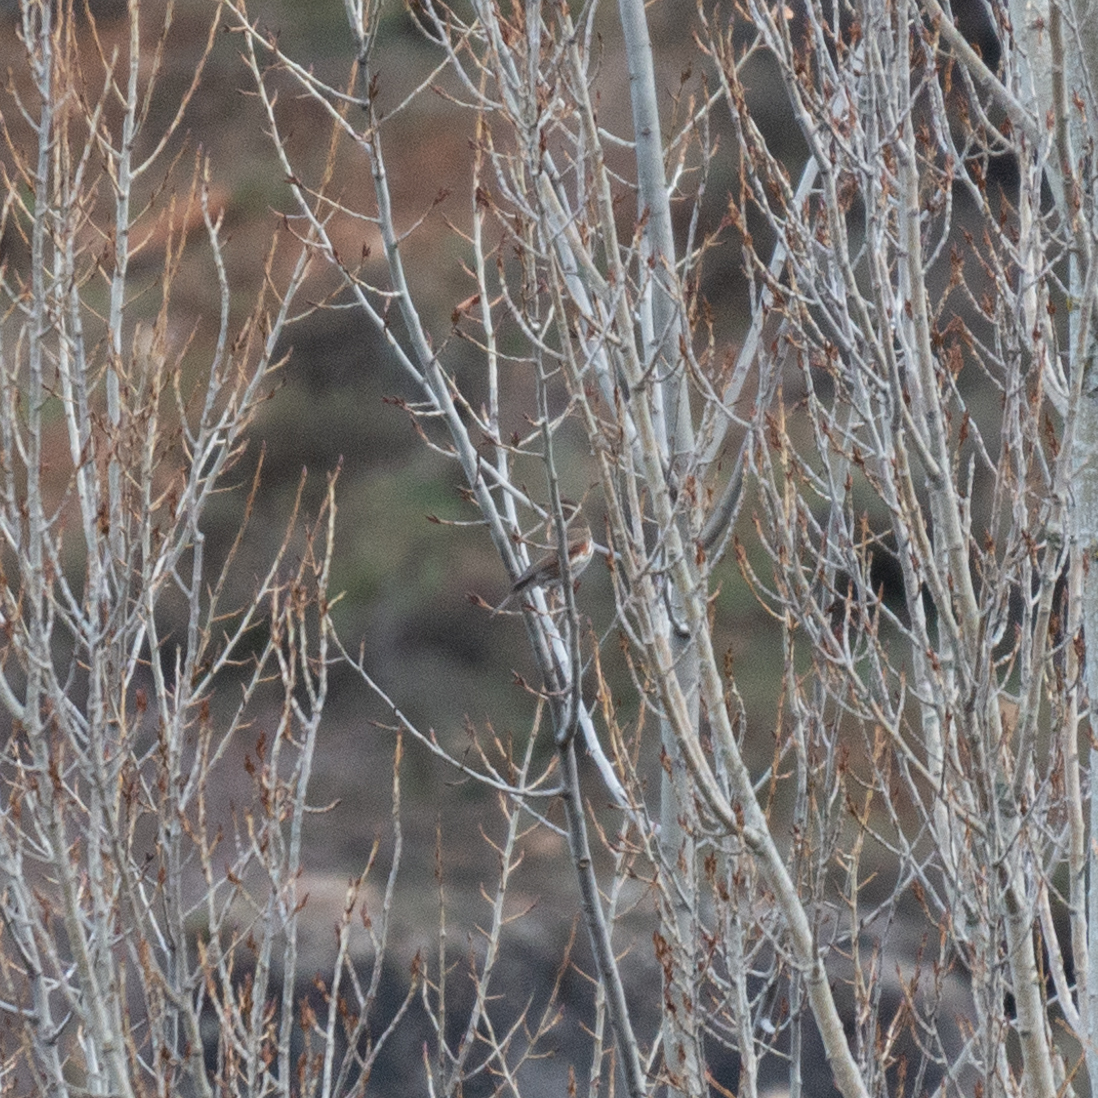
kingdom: Animalia
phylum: Chordata
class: Aves
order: Passeriformes
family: Turdidae
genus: Turdus
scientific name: Turdus iliacus
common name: Redwing
